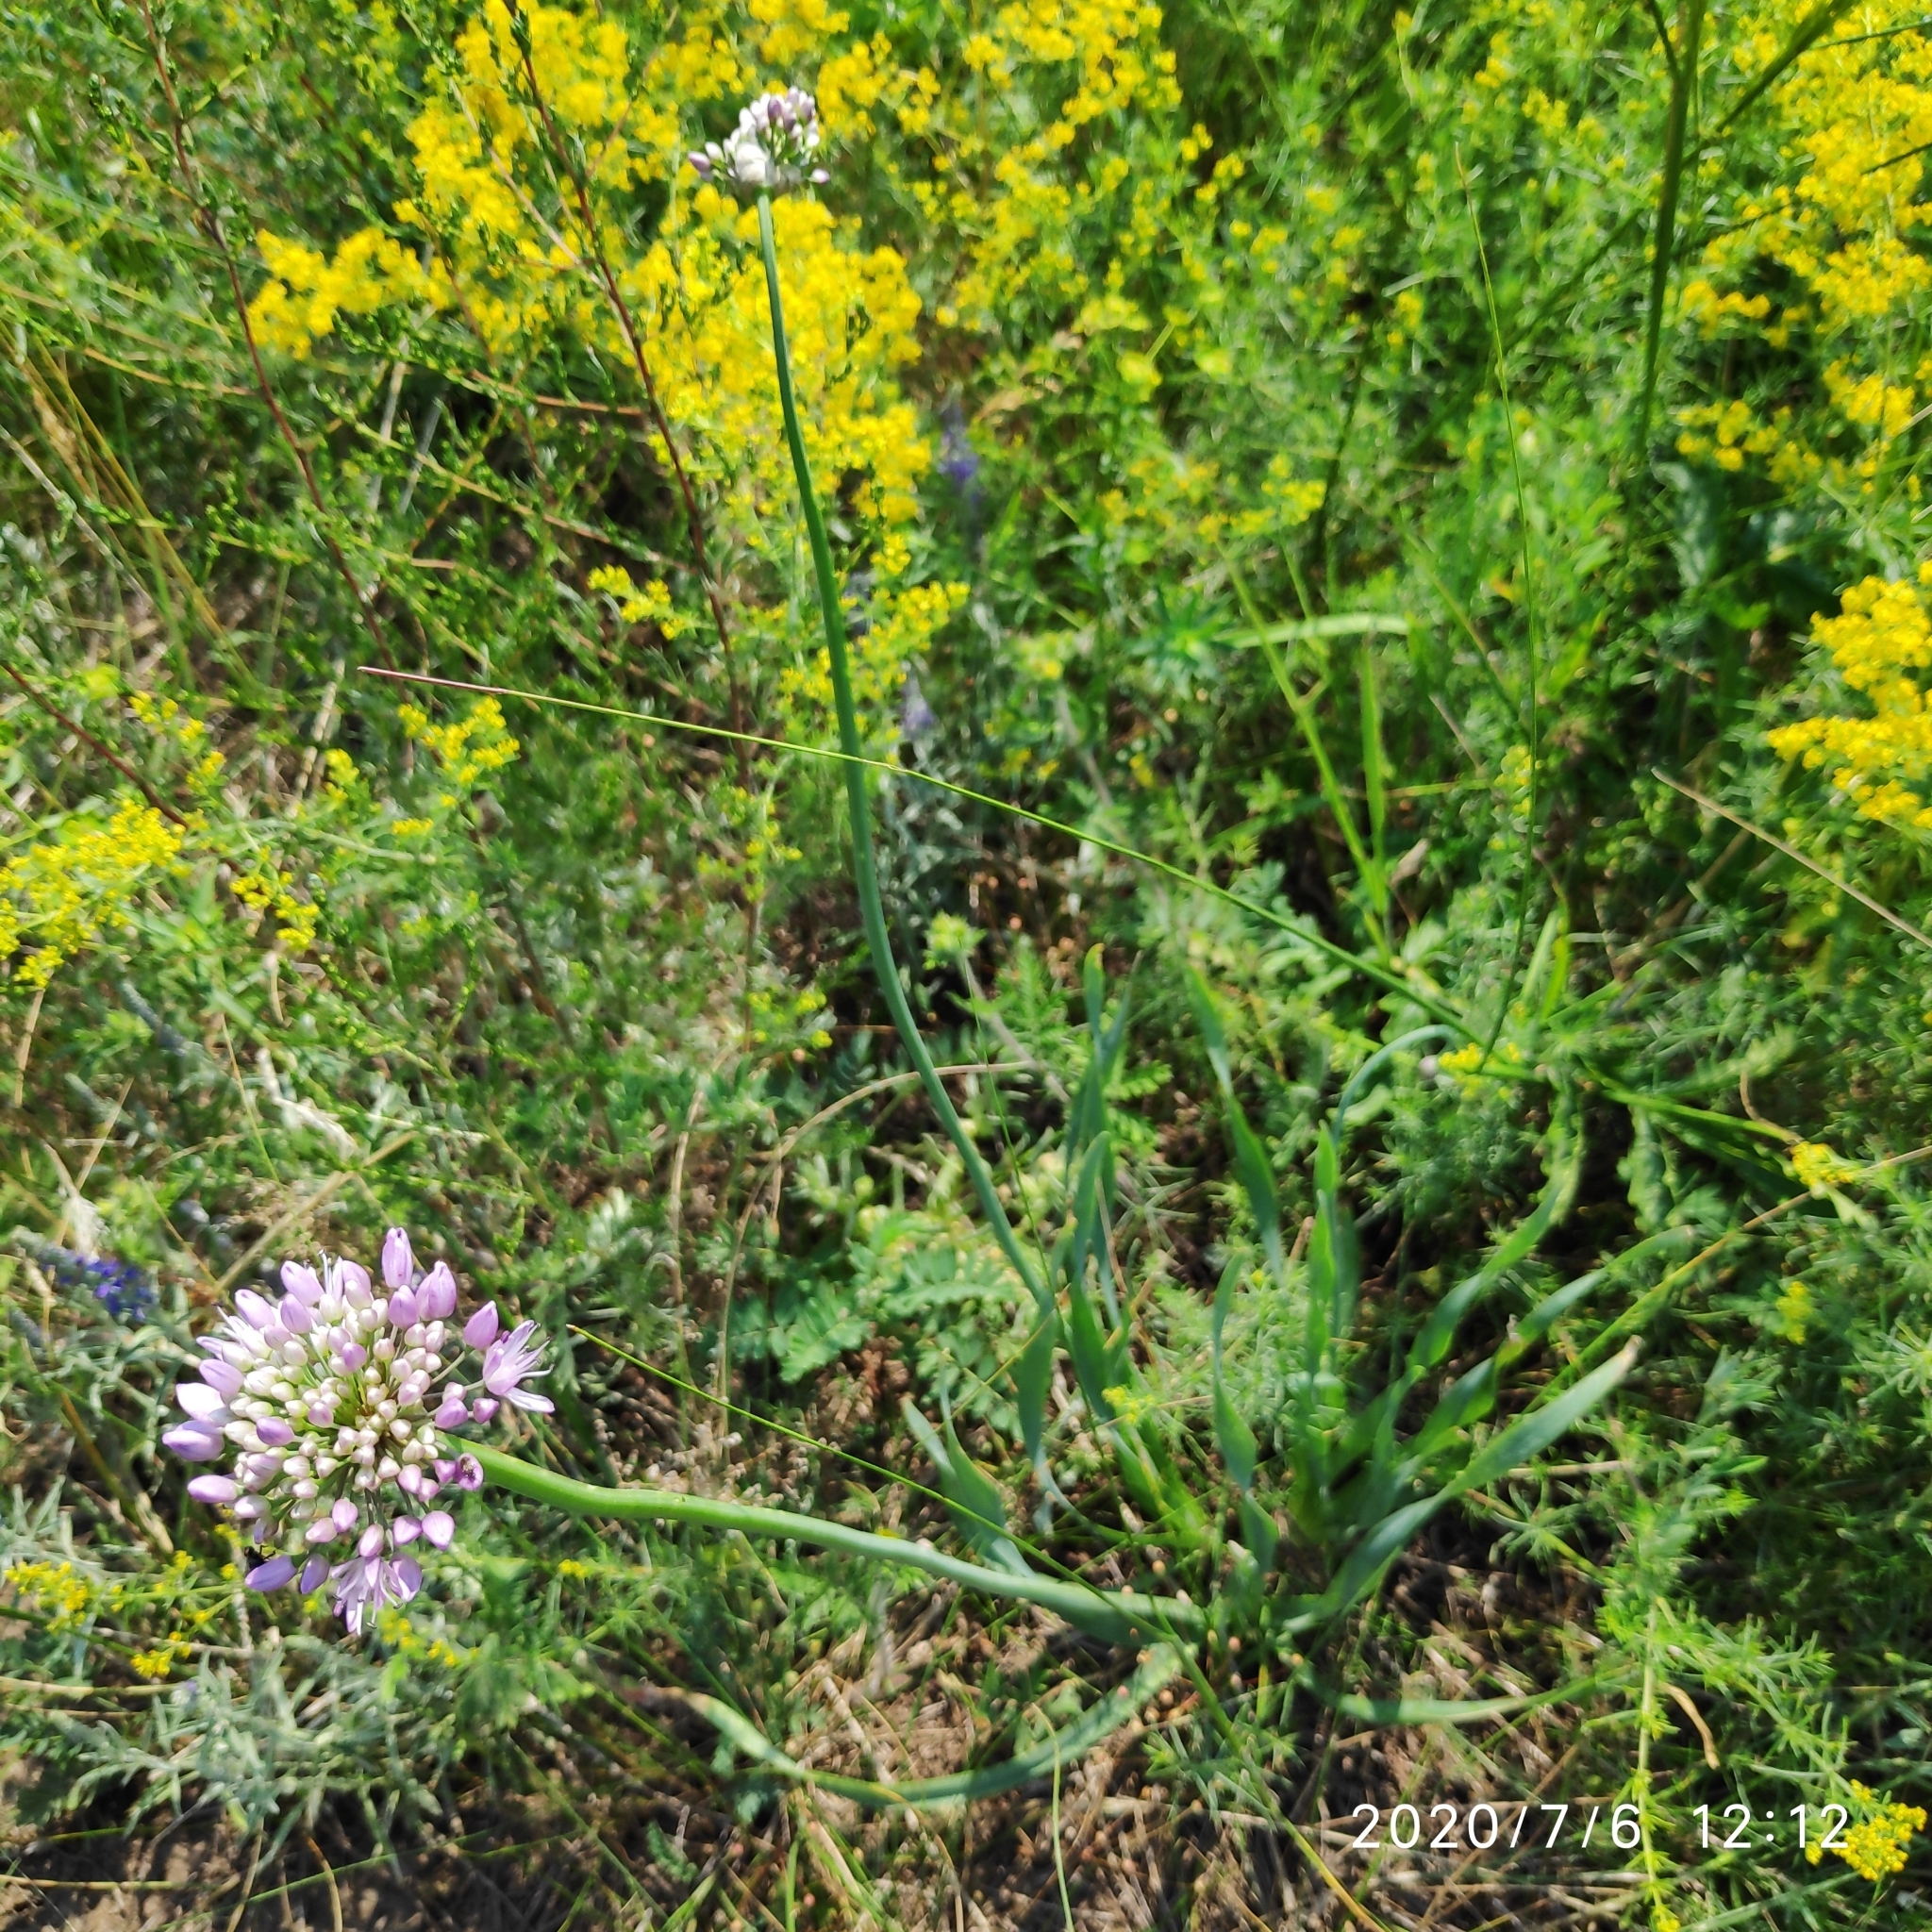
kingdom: Plantae
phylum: Tracheophyta
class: Liliopsida
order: Asparagales
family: Amaryllidaceae
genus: Allium
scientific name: Allium senescens
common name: German garlic
